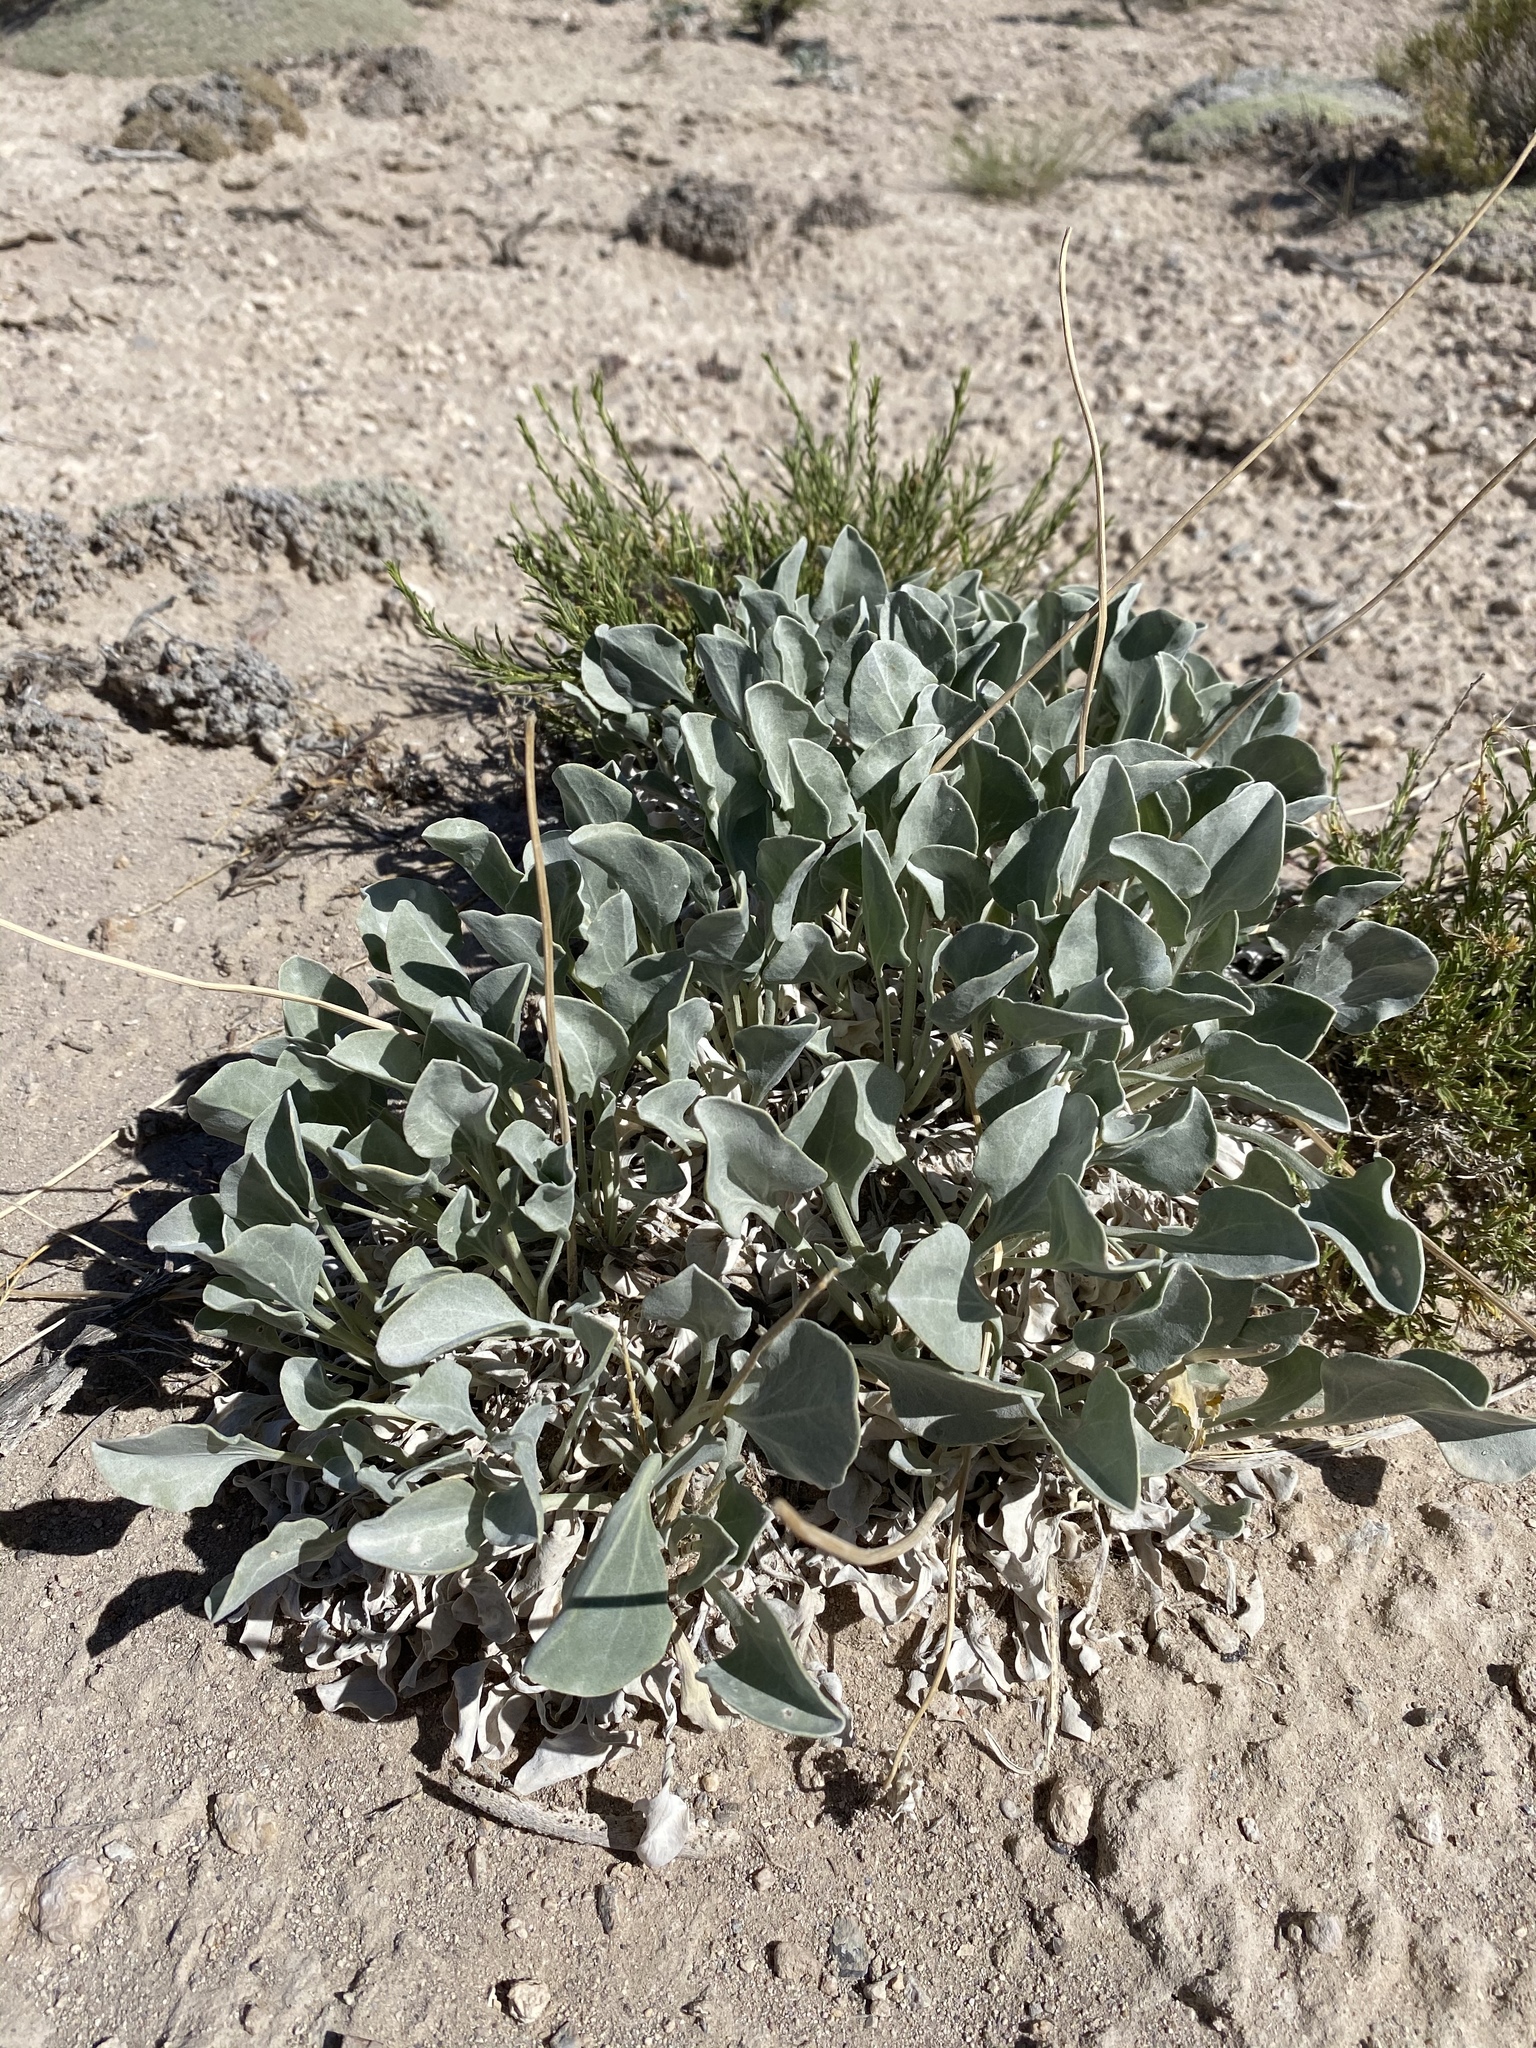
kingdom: Plantae
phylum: Tracheophyta
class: Magnoliopsida
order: Asterales
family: Asteraceae
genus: Enceliopsis
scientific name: Enceliopsis nudicaulis
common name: Naked-stem daisy
